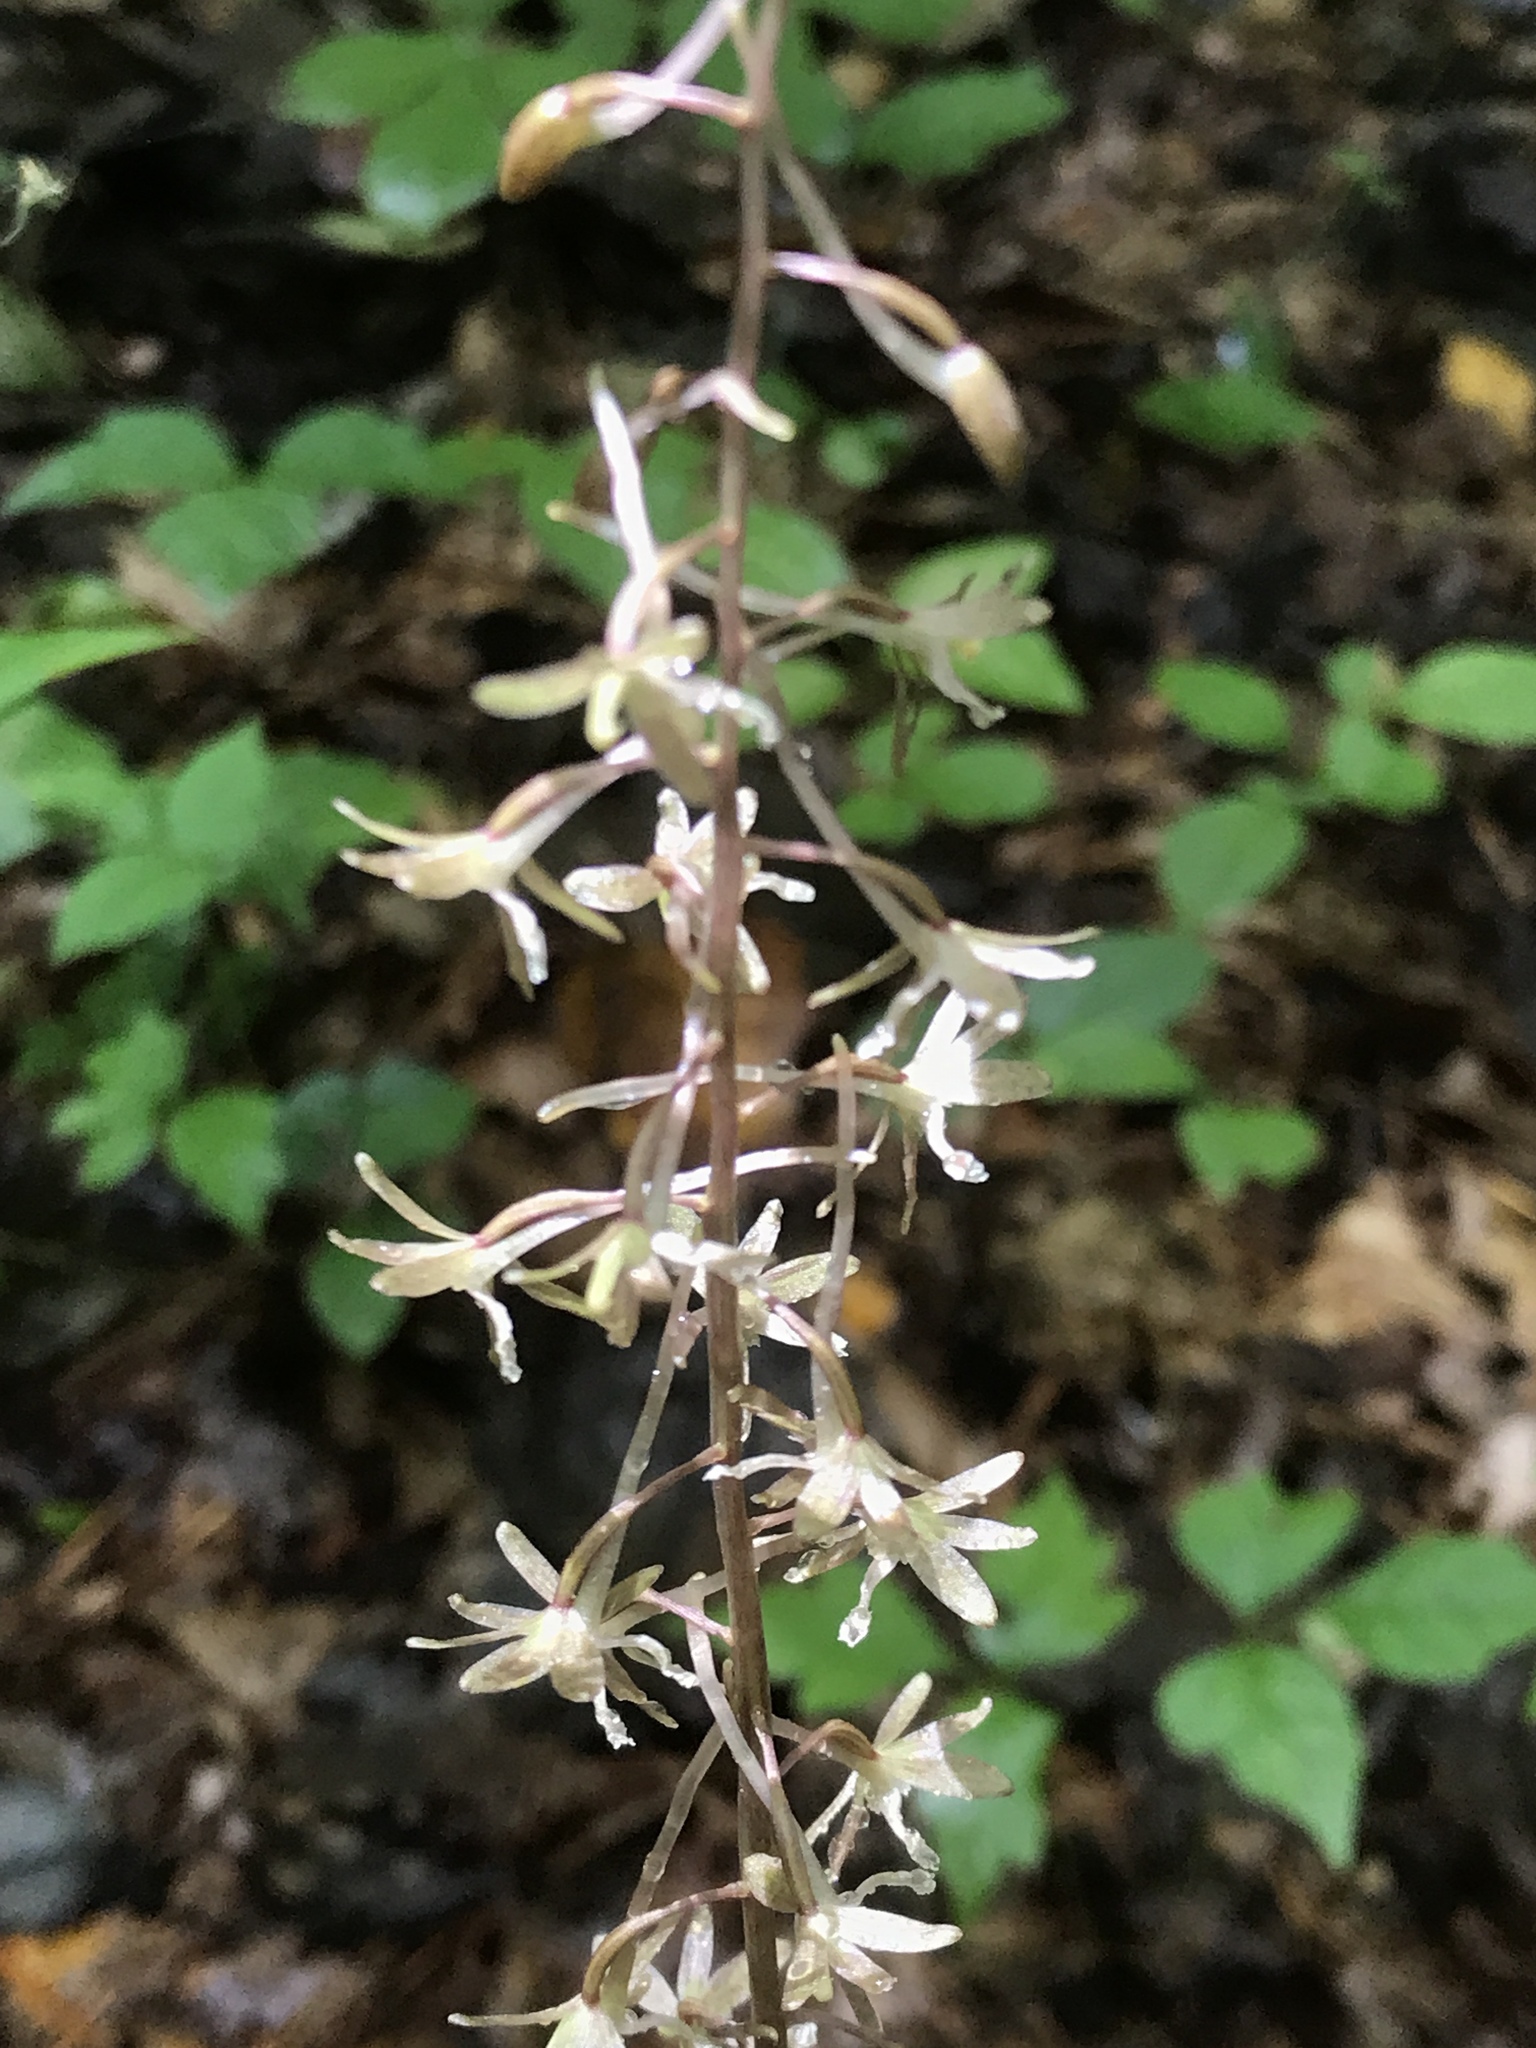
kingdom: Plantae
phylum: Tracheophyta
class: Liliopsida
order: Asparagales
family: Orchidaceae
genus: Tipularia
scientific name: Tipularia discolor
